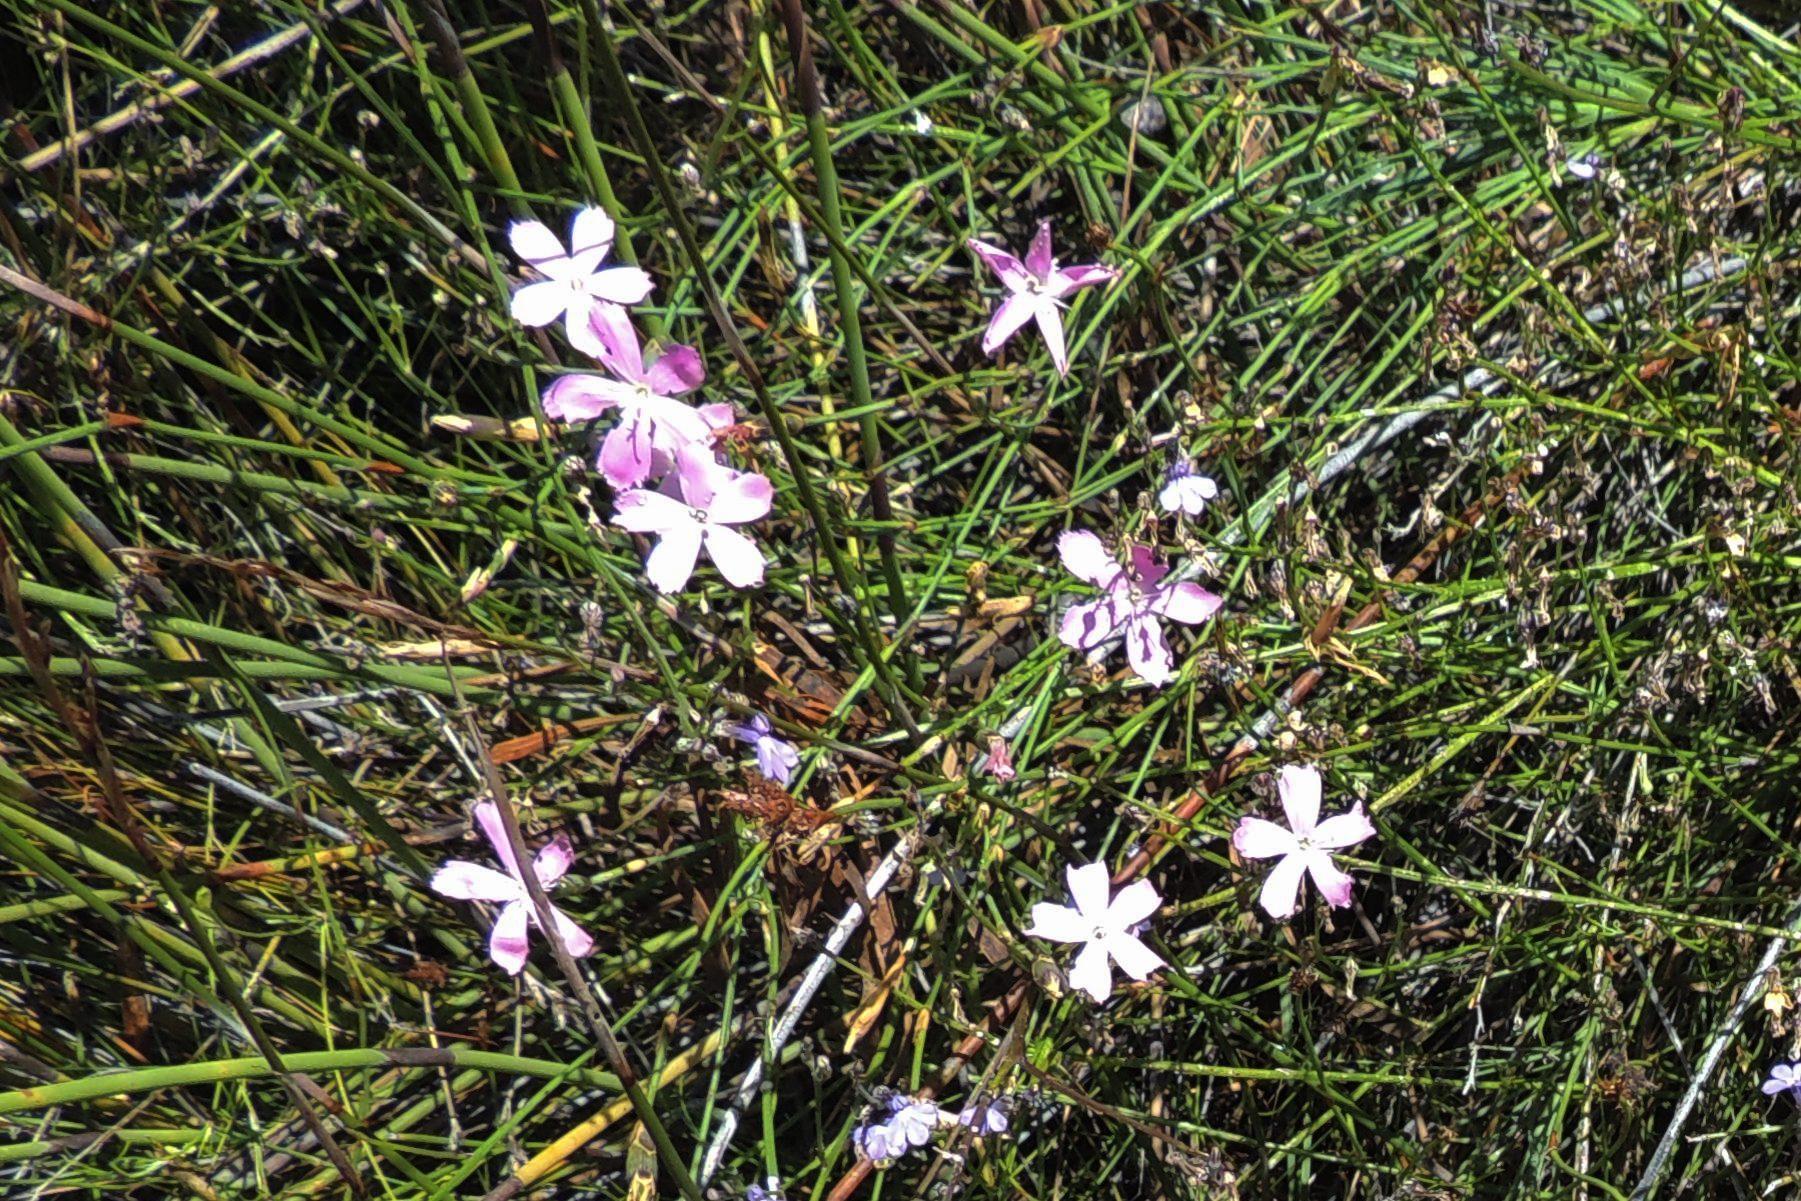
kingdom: Plantae
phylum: Tracheophyta
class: Magnoliopsida
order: Caryophyllales
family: Caryophyllaceae
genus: Dianthus
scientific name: Dianthus thunbergii
